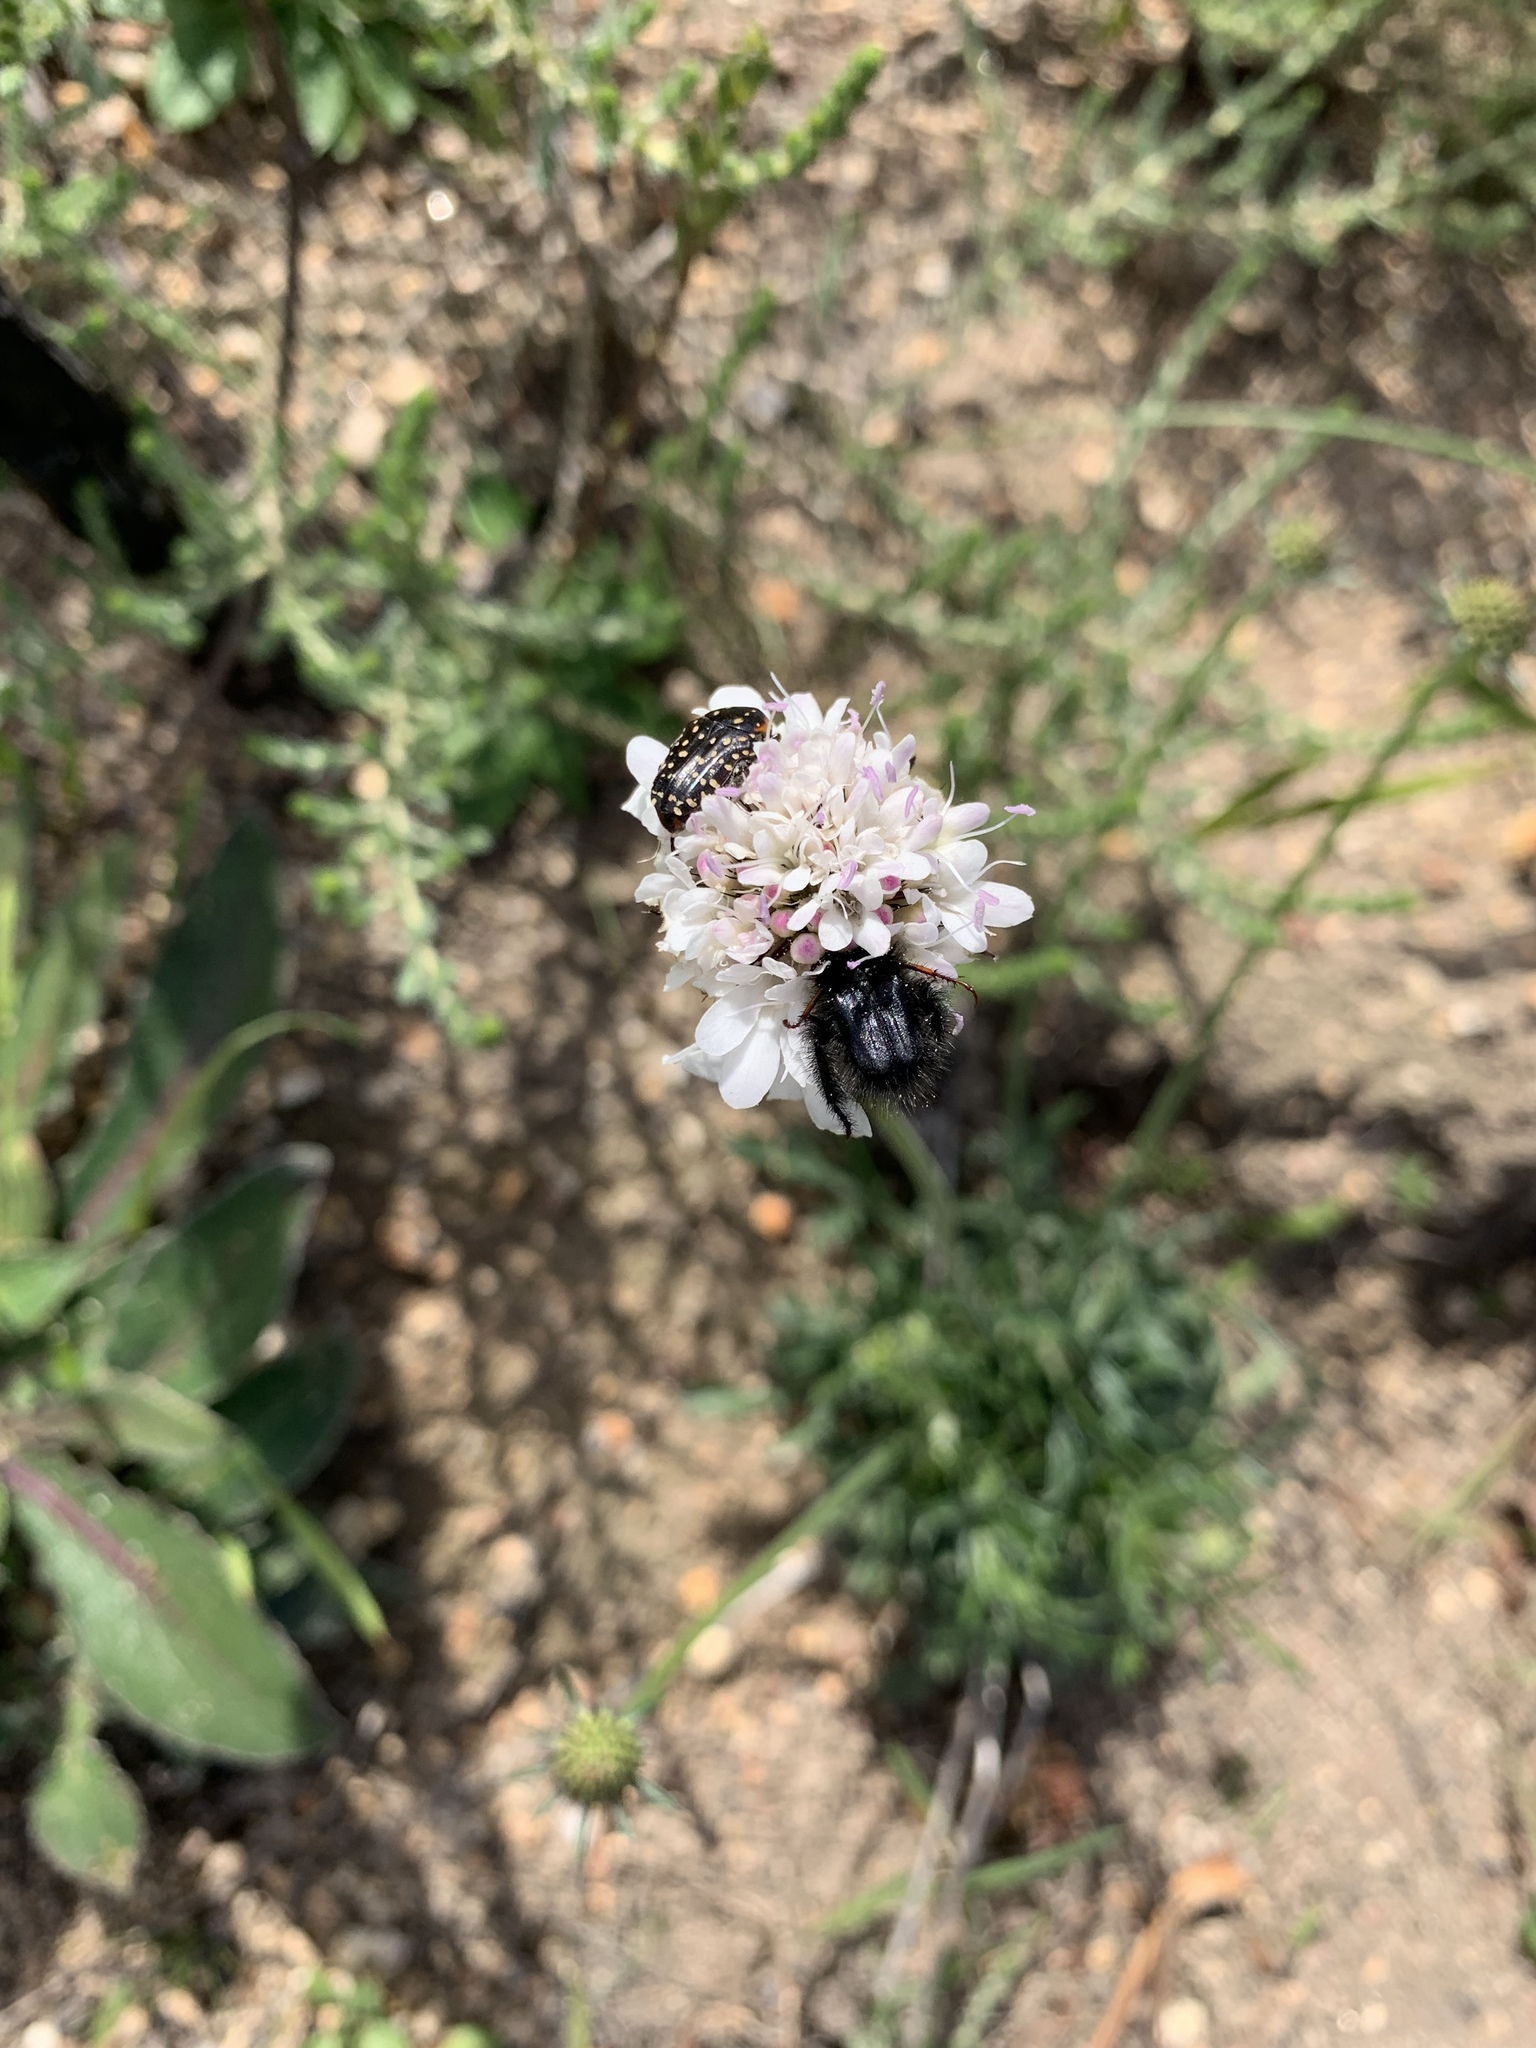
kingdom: Plantae
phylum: Tracheophyta
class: Magnoliopsida
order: Dipsacales
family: Caprifoliaceae
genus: Scabiosa
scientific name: Scabiosa columbaria
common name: Small scabious
